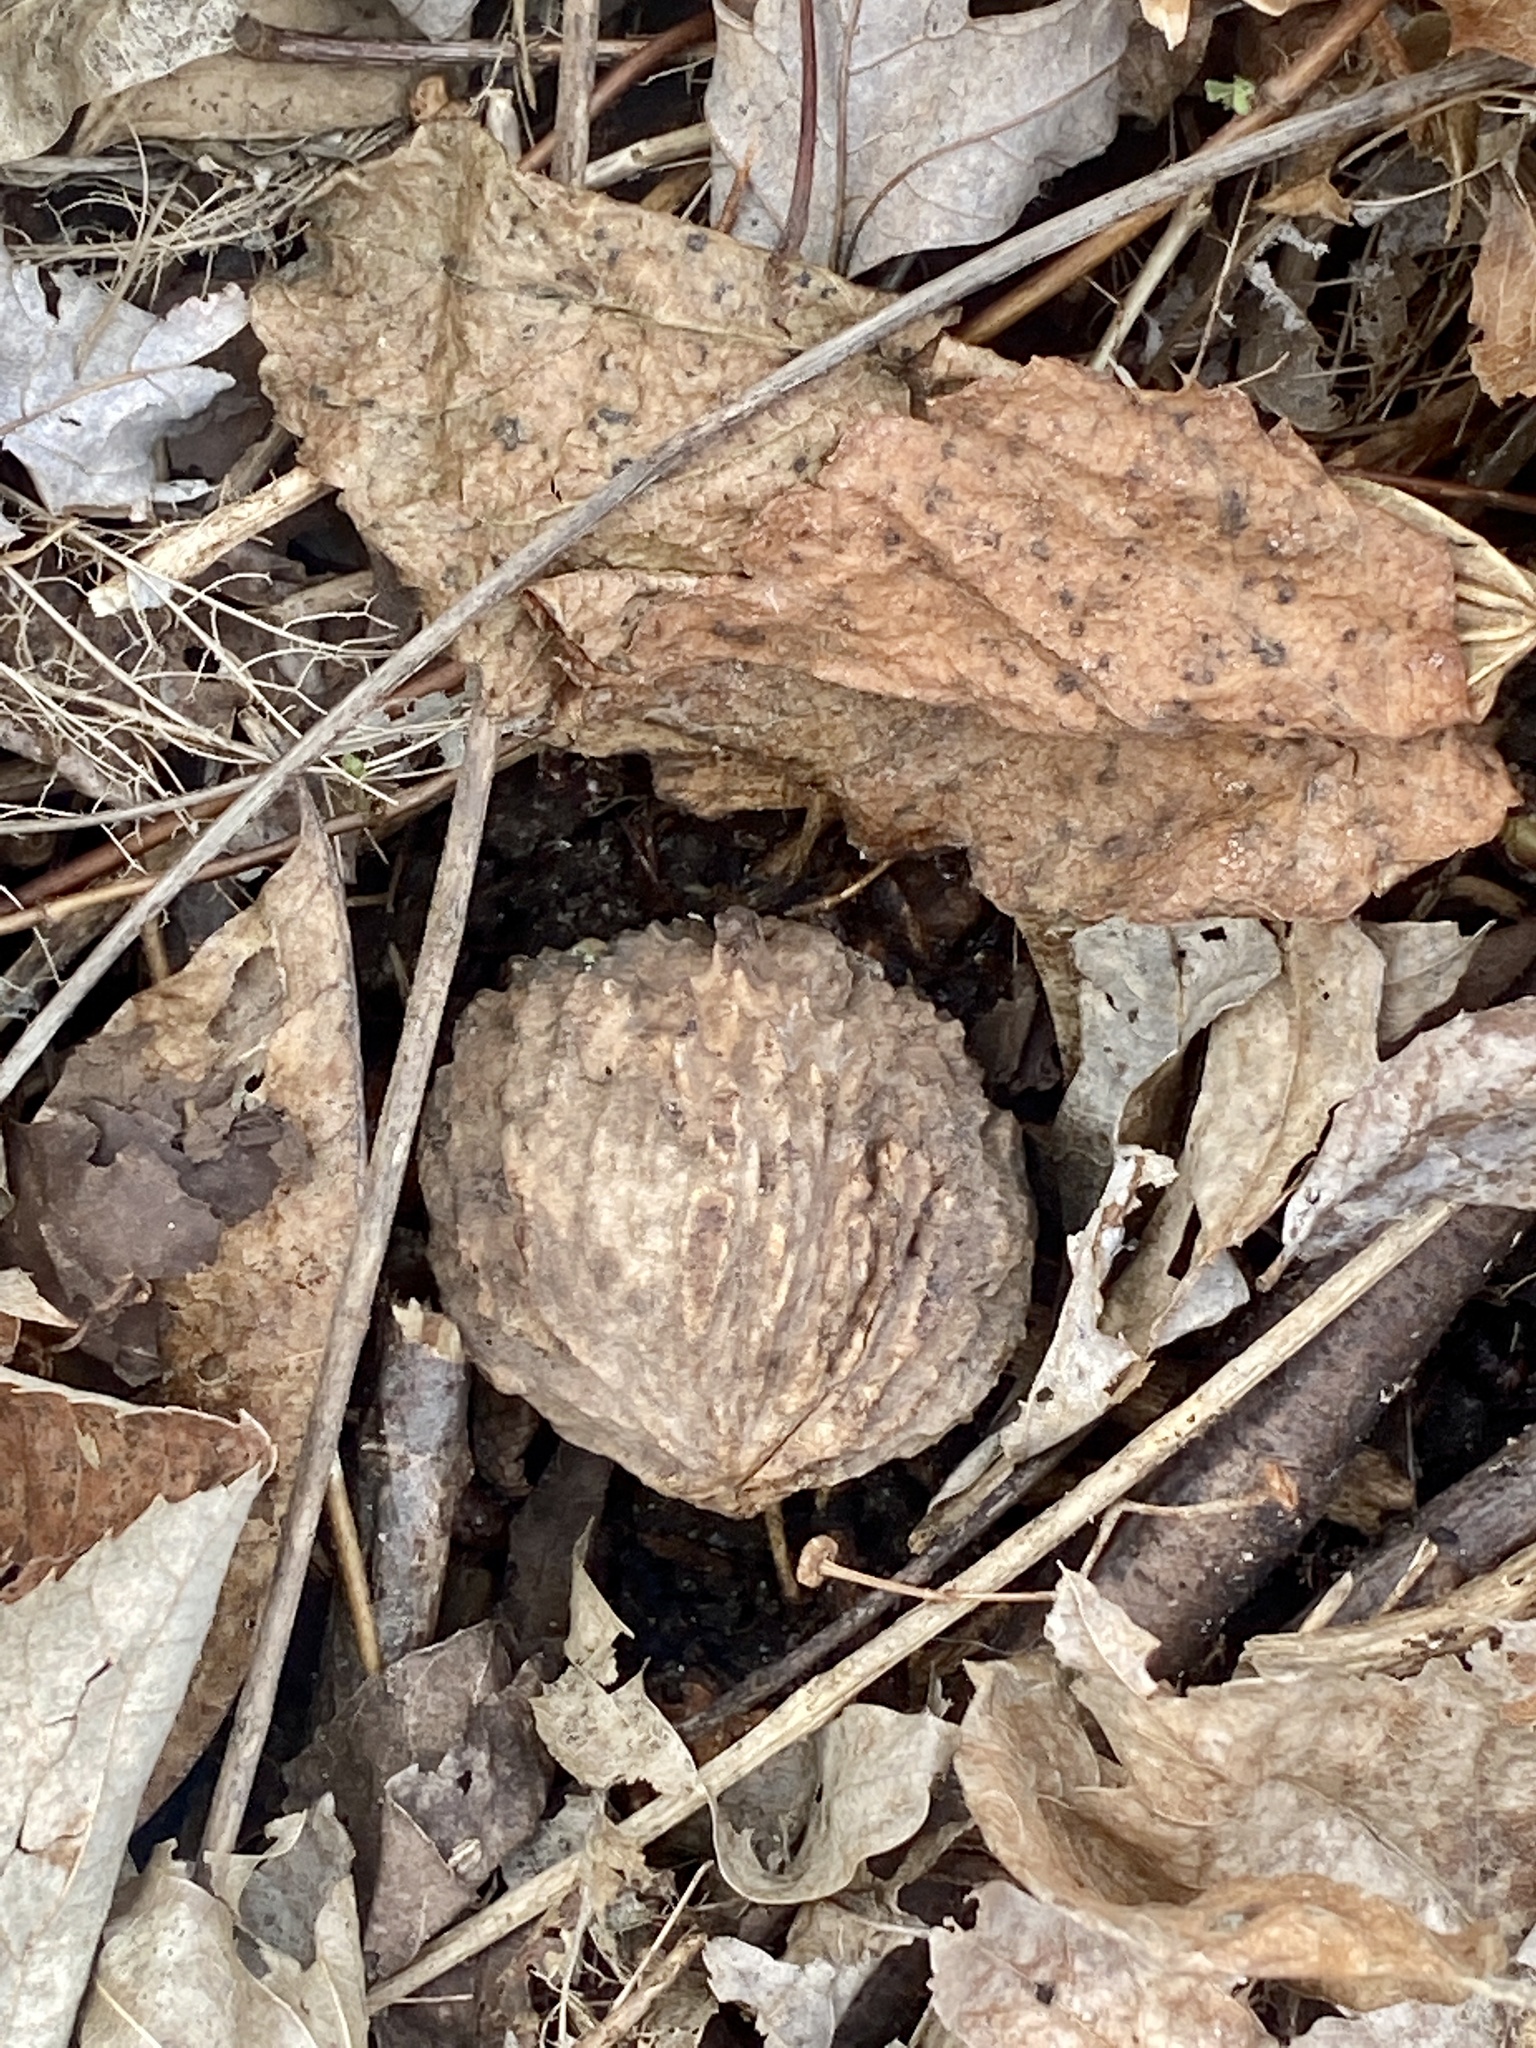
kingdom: Plantae
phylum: Tracheophyta
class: Magnoliopsida
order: Fagales
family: Juglandaceae
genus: Juglans
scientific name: Juglans nigra
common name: Black walnut
